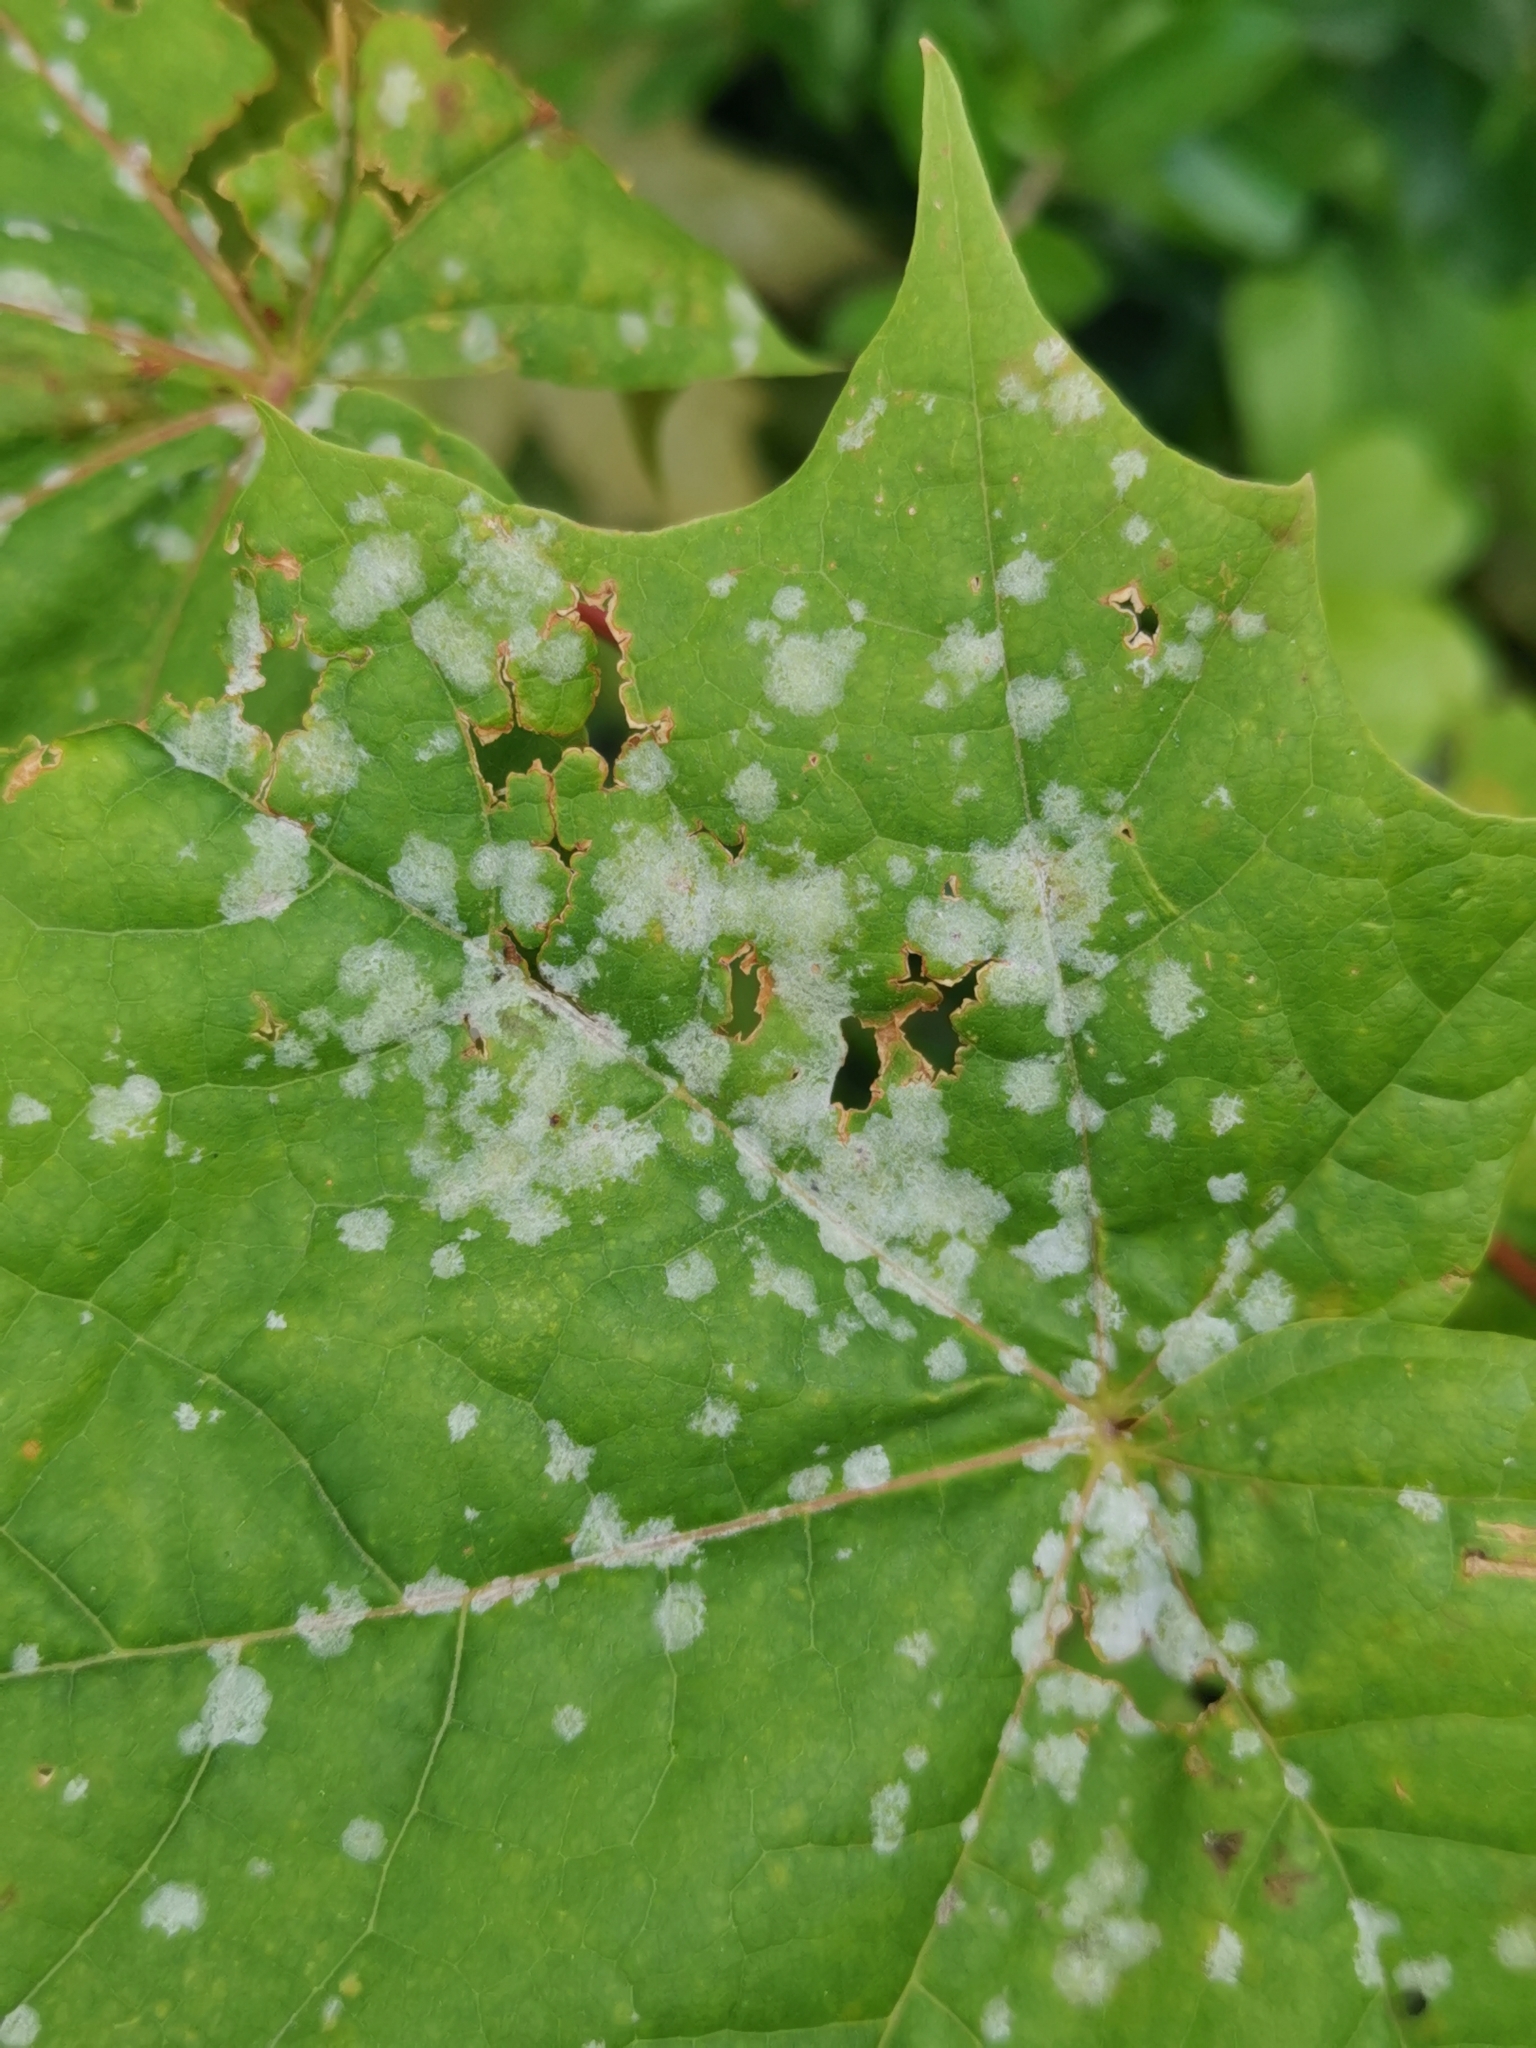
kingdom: Fungi
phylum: Ascomycota
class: Leotiomycetes
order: Helotiales
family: Erysiphaceae
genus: Sawadaea
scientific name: Sawadaea tulasnei
